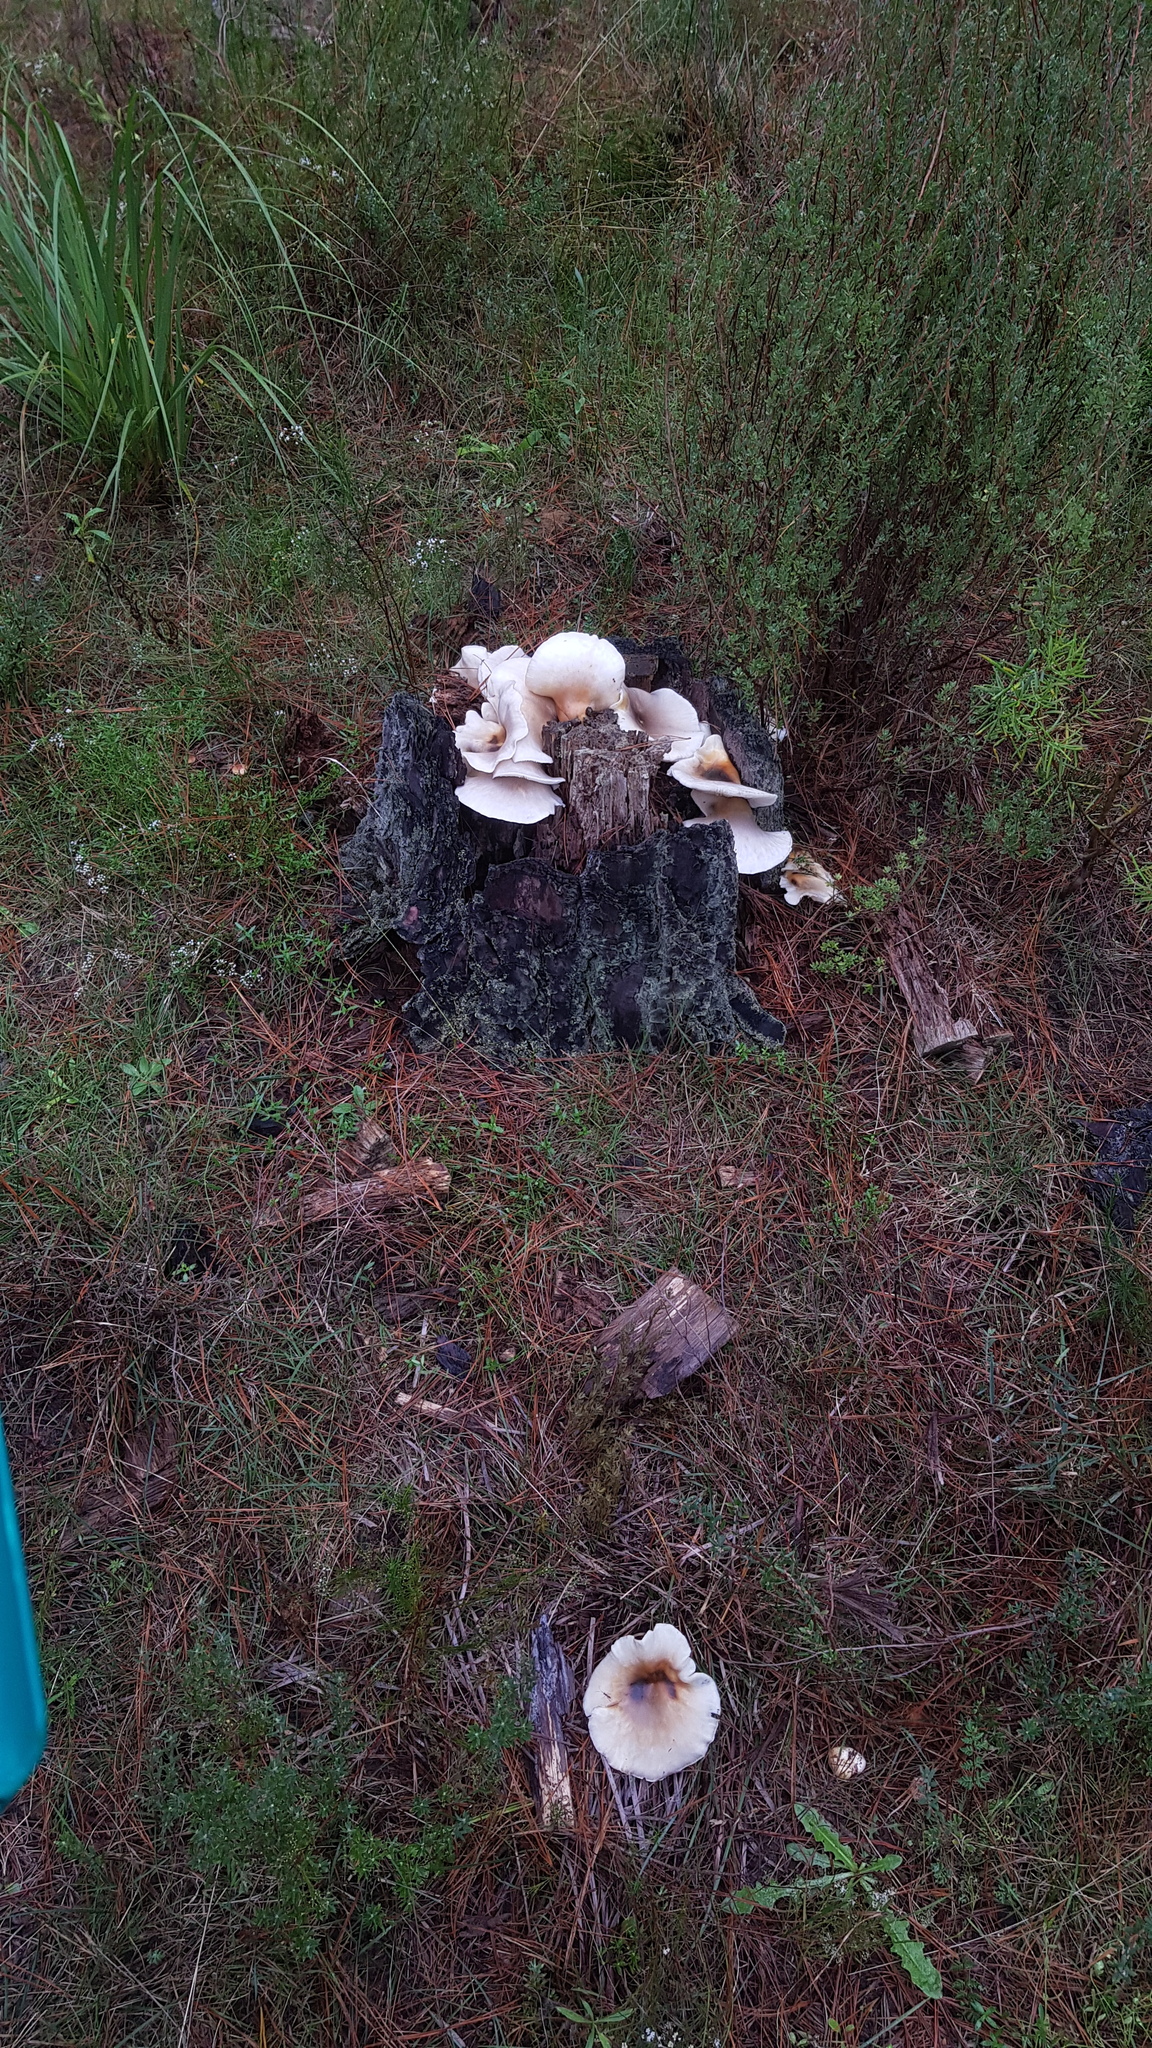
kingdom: Fungi
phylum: Basidiomycota
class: Agaricomycetes
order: Agaricales
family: Omphalotaceae
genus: Omphalotus
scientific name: Omphalotus nidiformis
